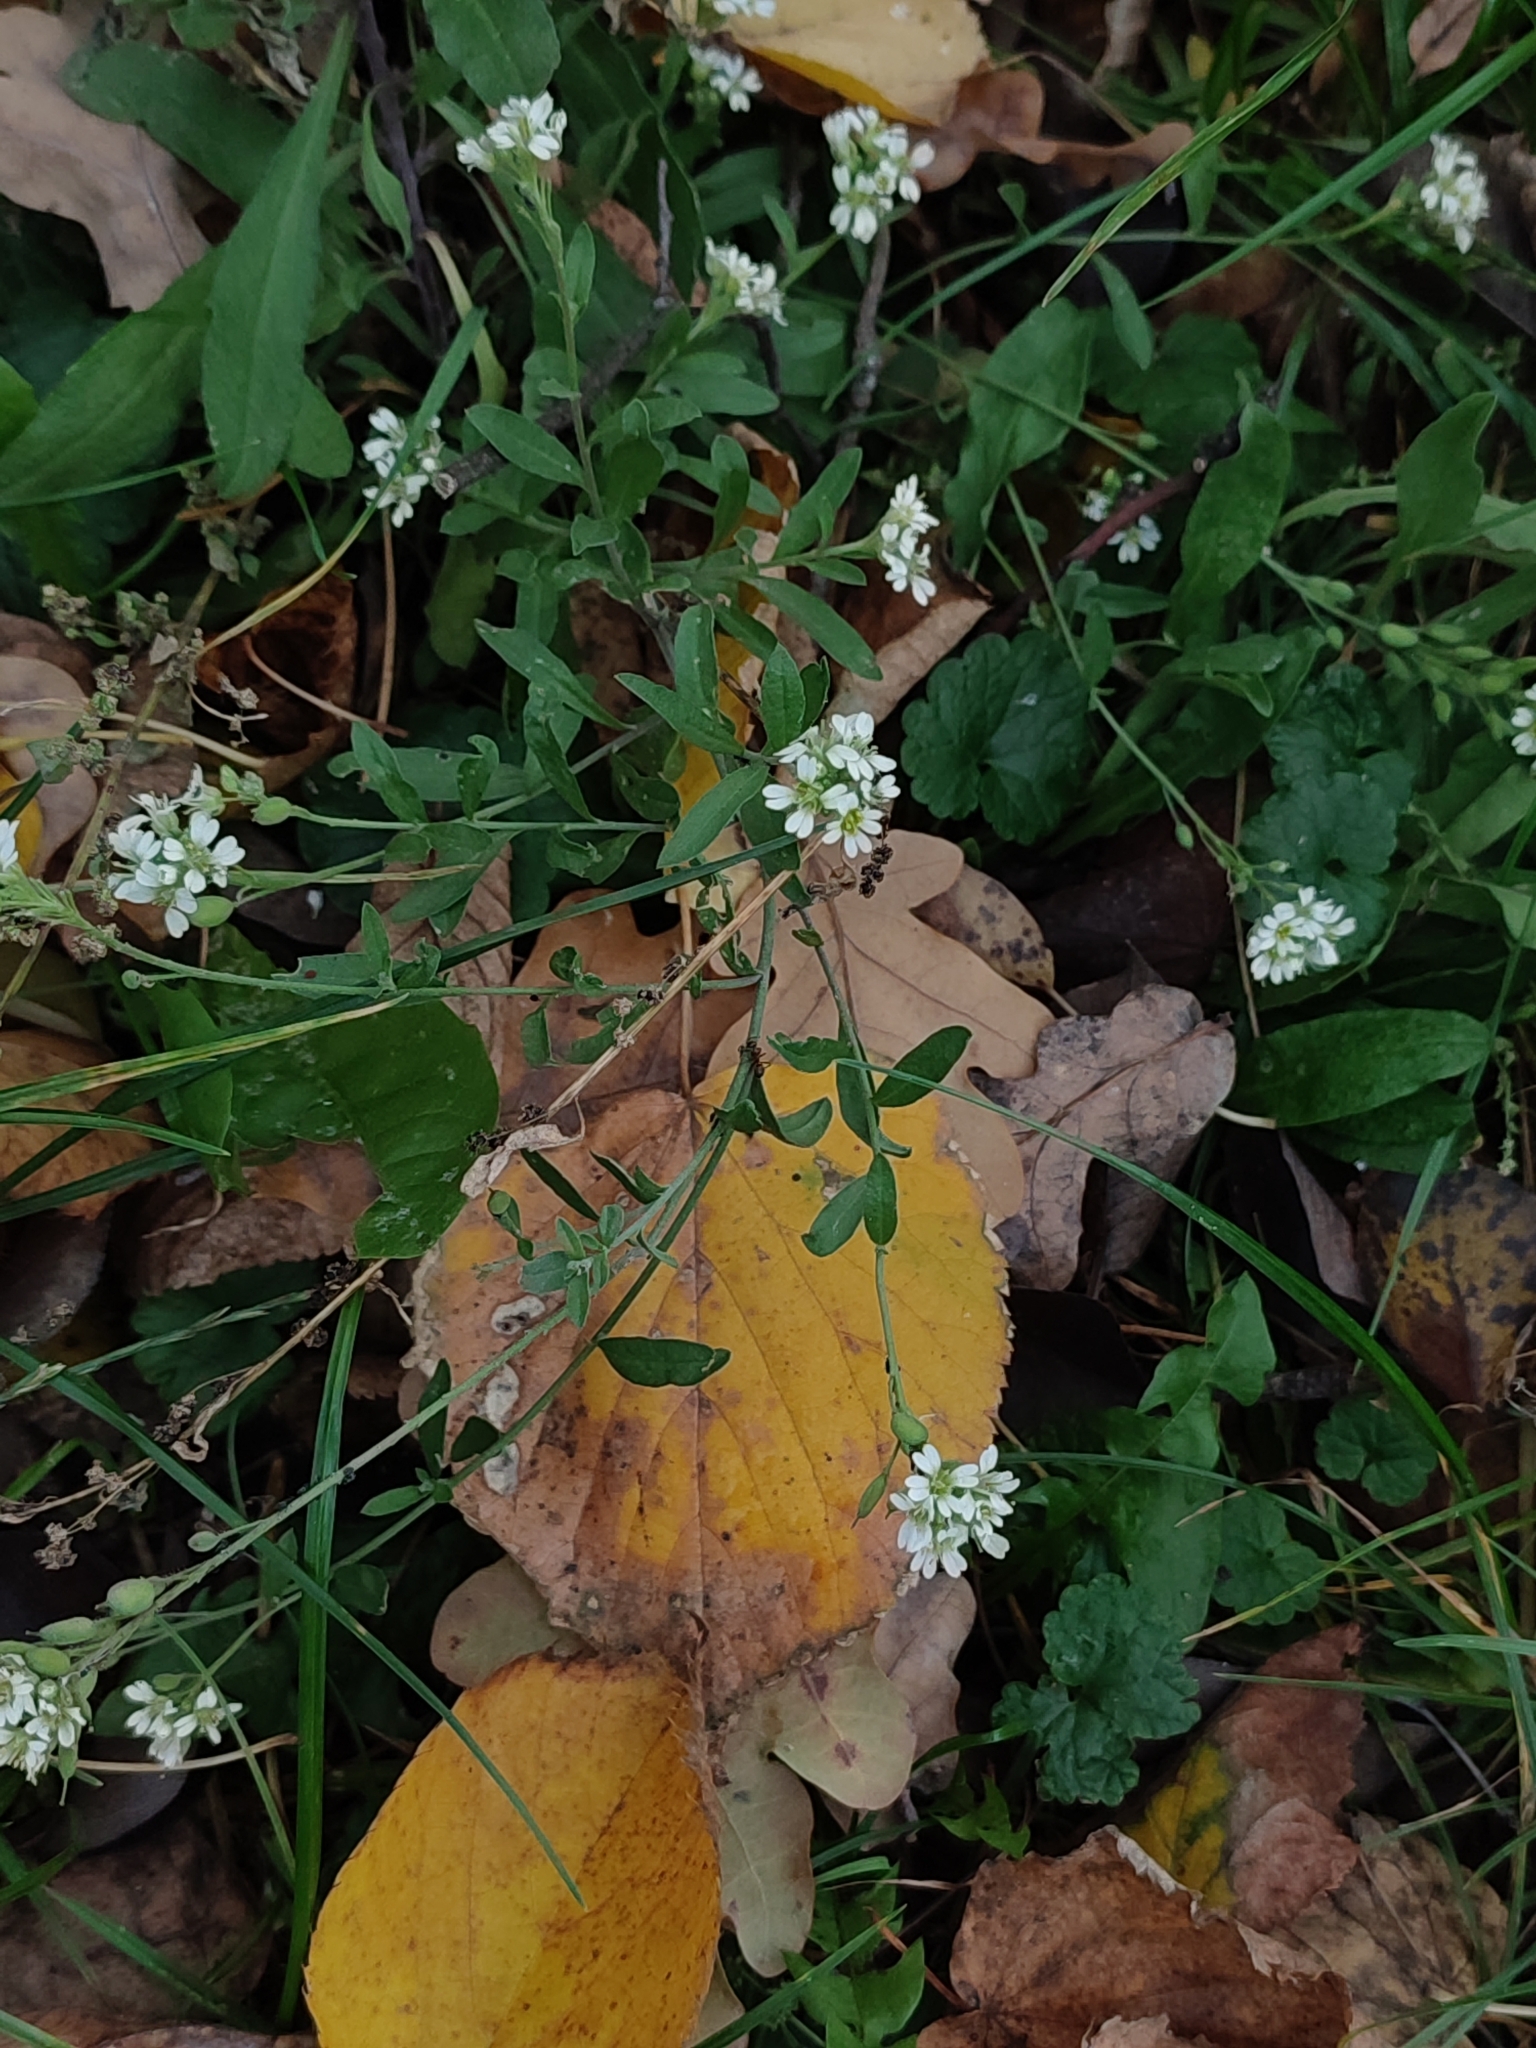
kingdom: Plantae
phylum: Tracheophyta
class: Magnoliopsida
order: Brassicales
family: Brassicaceae
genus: Berteroa
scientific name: Berteroa incana
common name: Hoary alison
